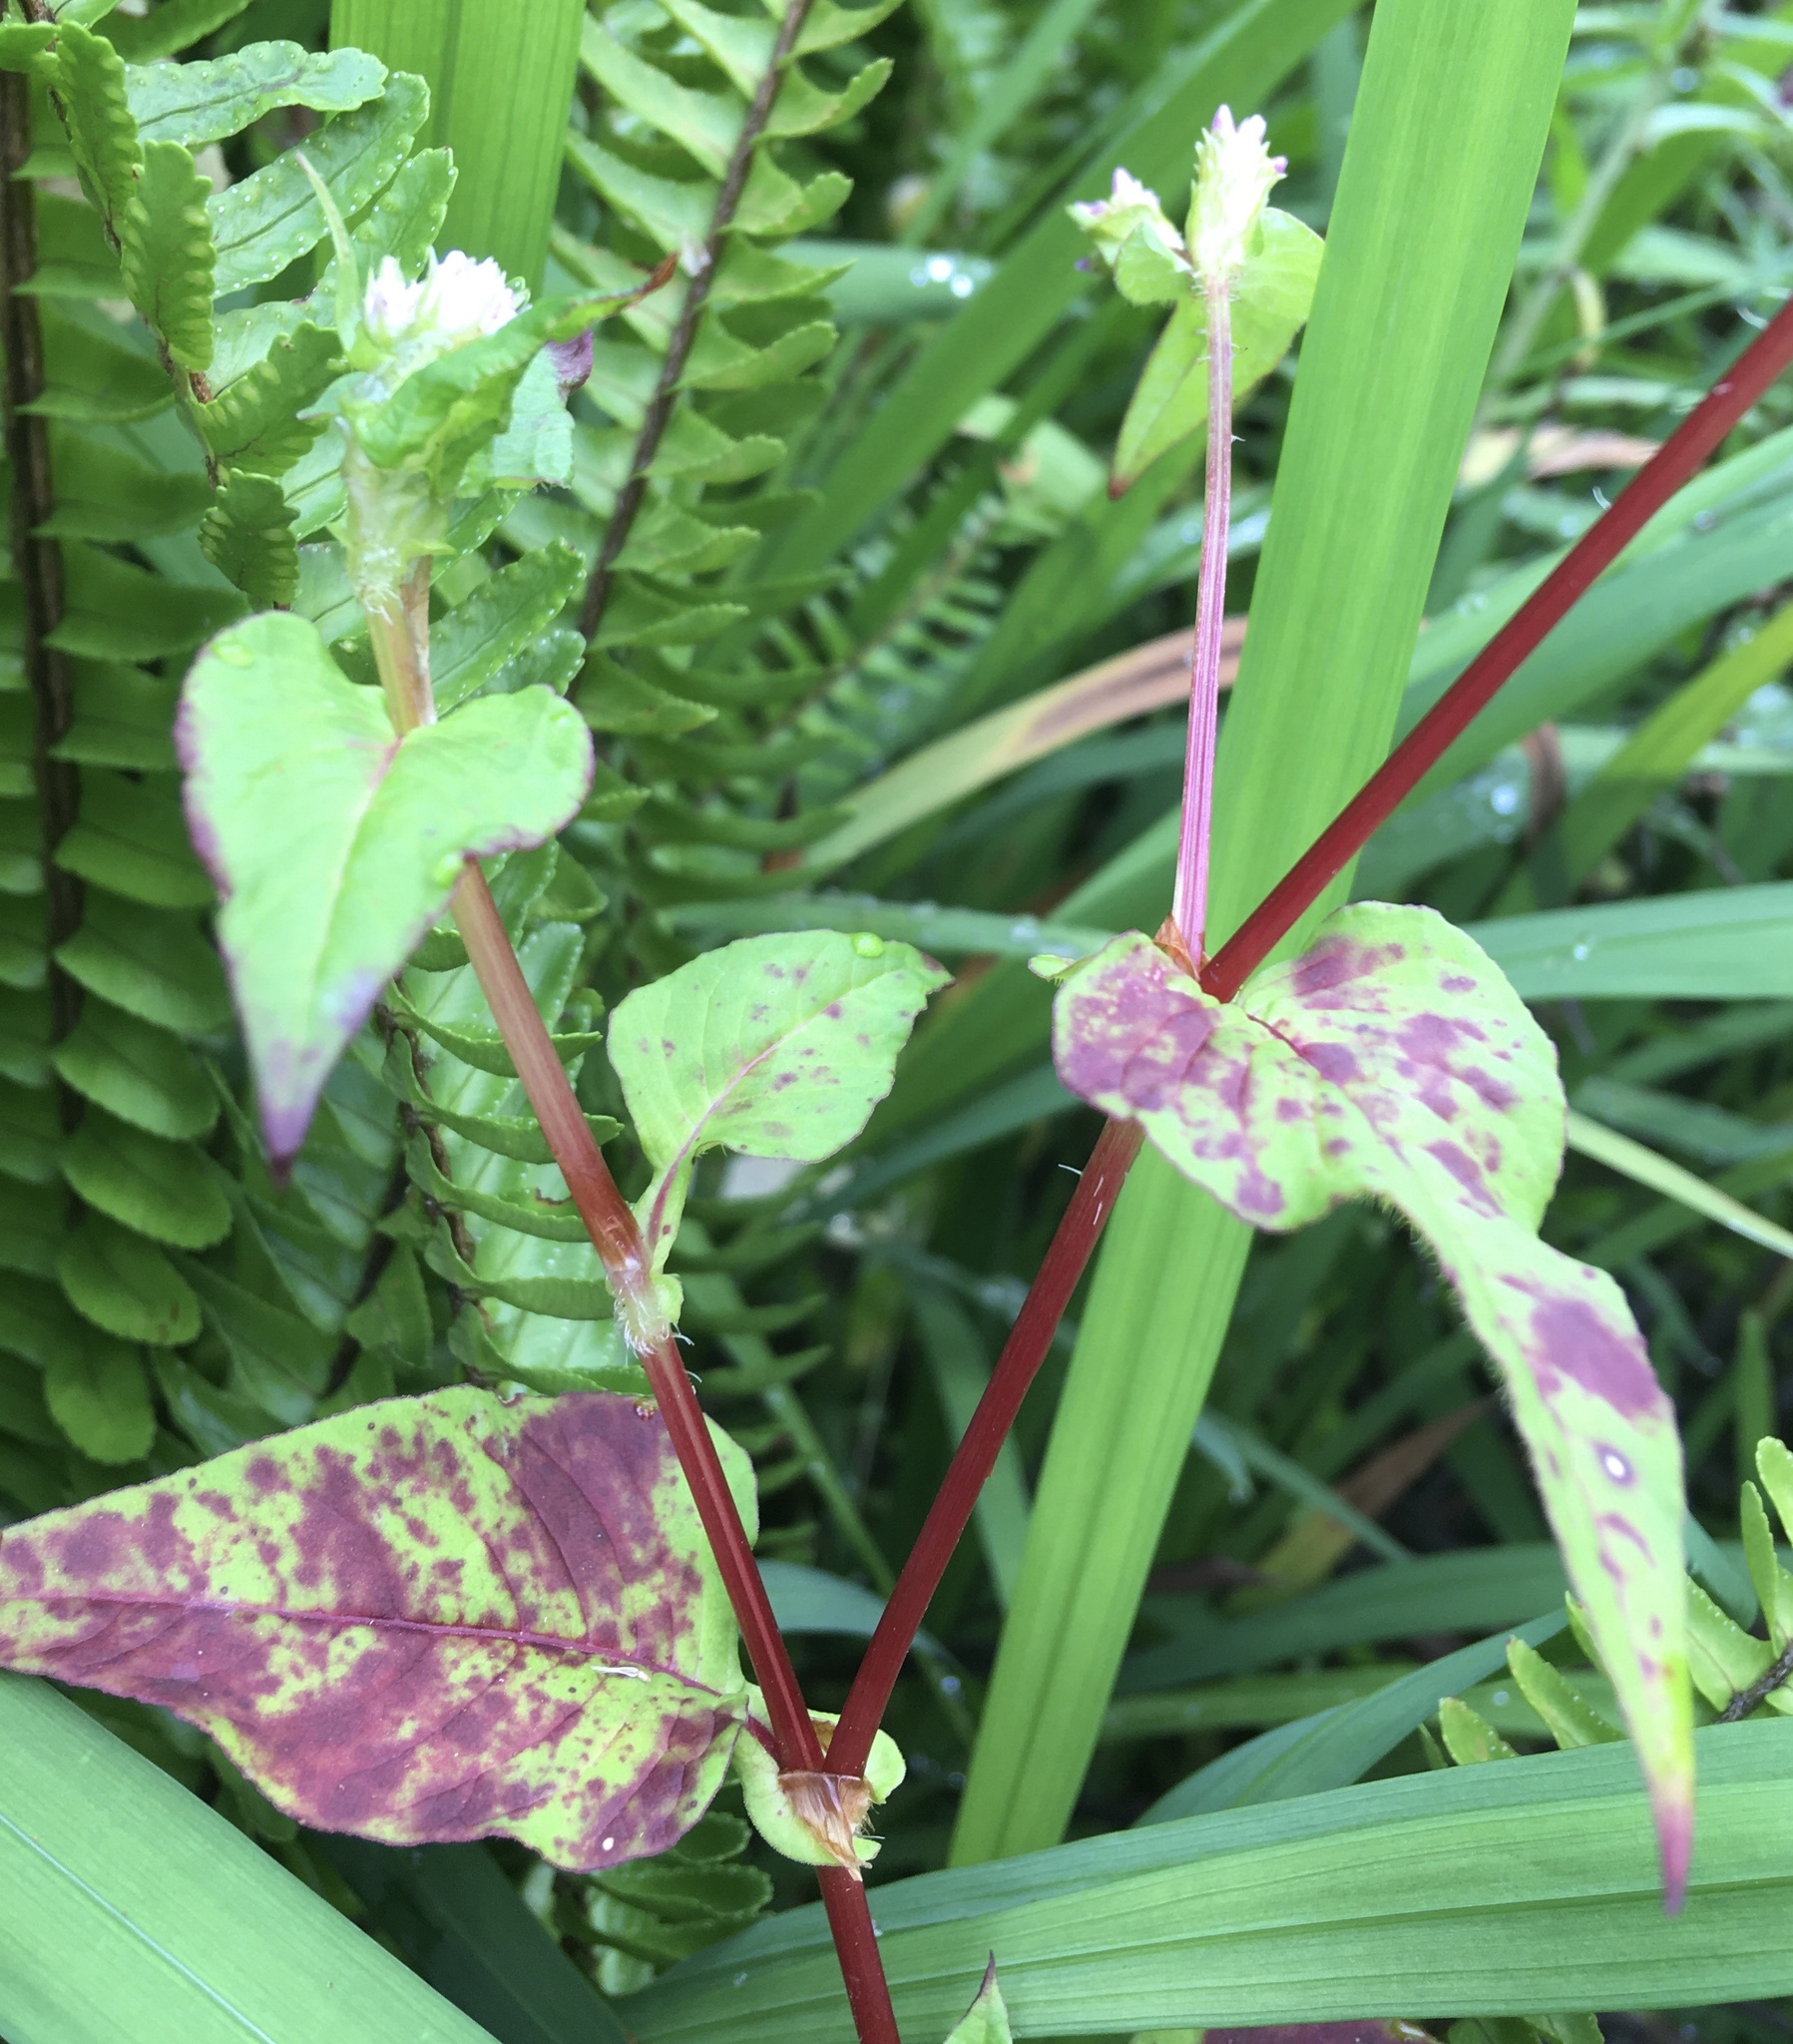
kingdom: Plantae
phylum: Tracheophyta
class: Magnoliopsida
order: Caryophyllales
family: Polygonaceae
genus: Persicaria
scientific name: Persicaria nepalensis
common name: Nepal persicaria
